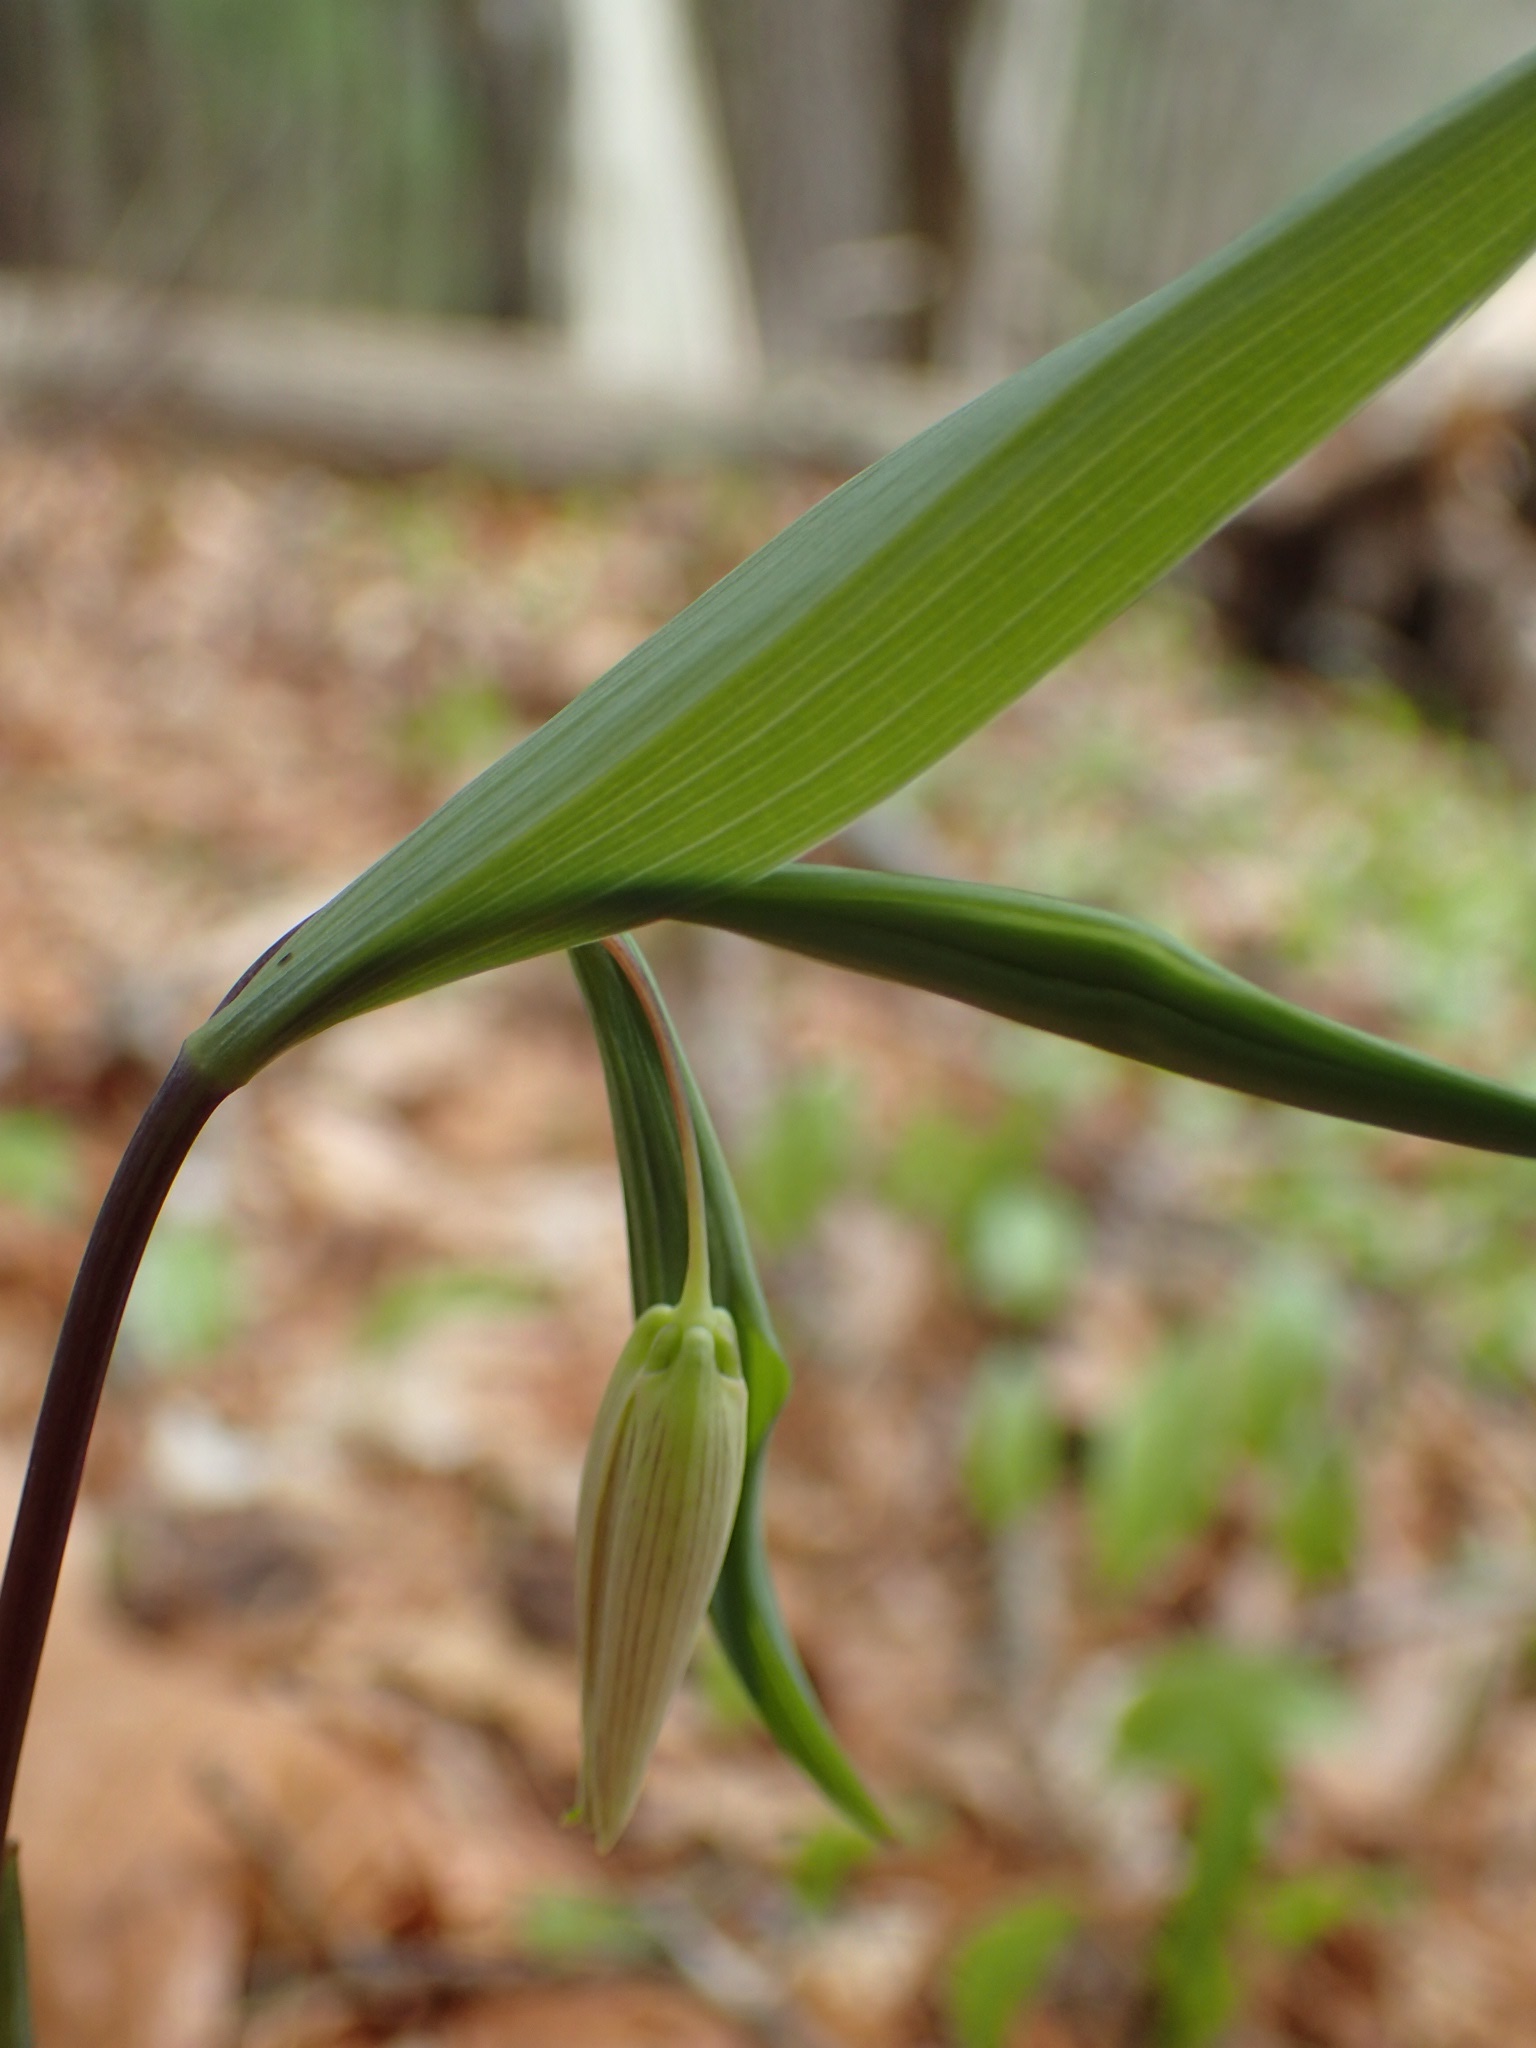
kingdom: Plantae
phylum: Tracheophyta
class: Liliopsida
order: Liliales
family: Colchicaceae
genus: Uvularia
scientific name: Uvularia sessilifolia
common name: Straw-lily
